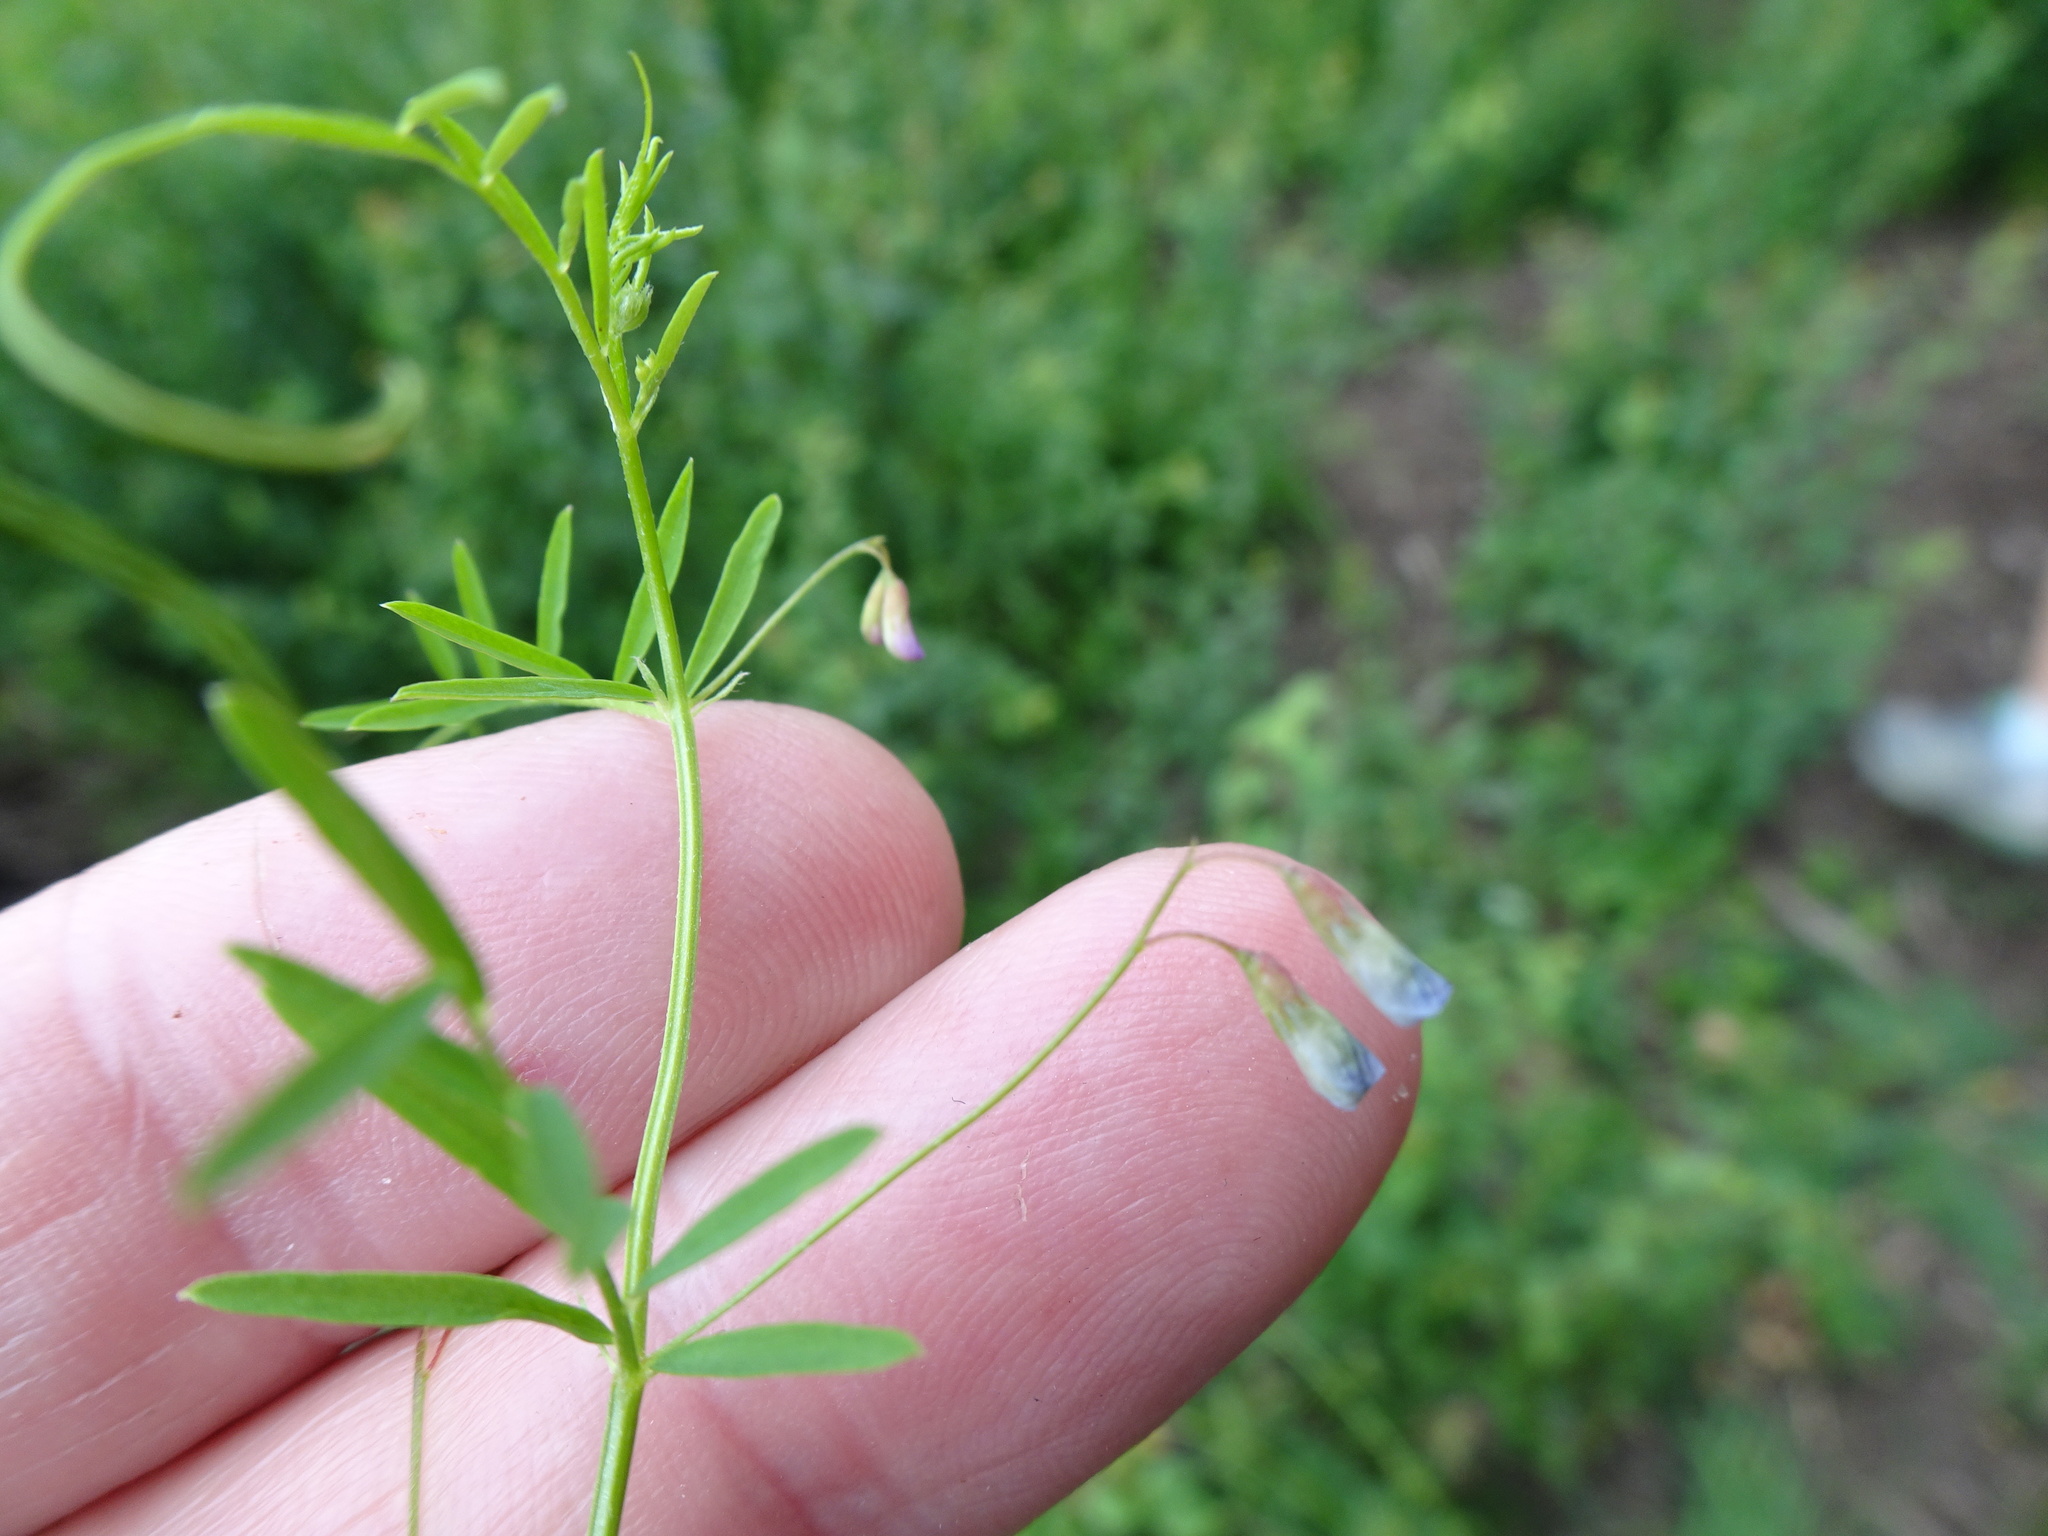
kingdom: Plantae
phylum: Tracheophyta
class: Magnoliopsida
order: Fabales
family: Fabaceae
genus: Vicia
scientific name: Vicia tetrasperma
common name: Smooth tare
